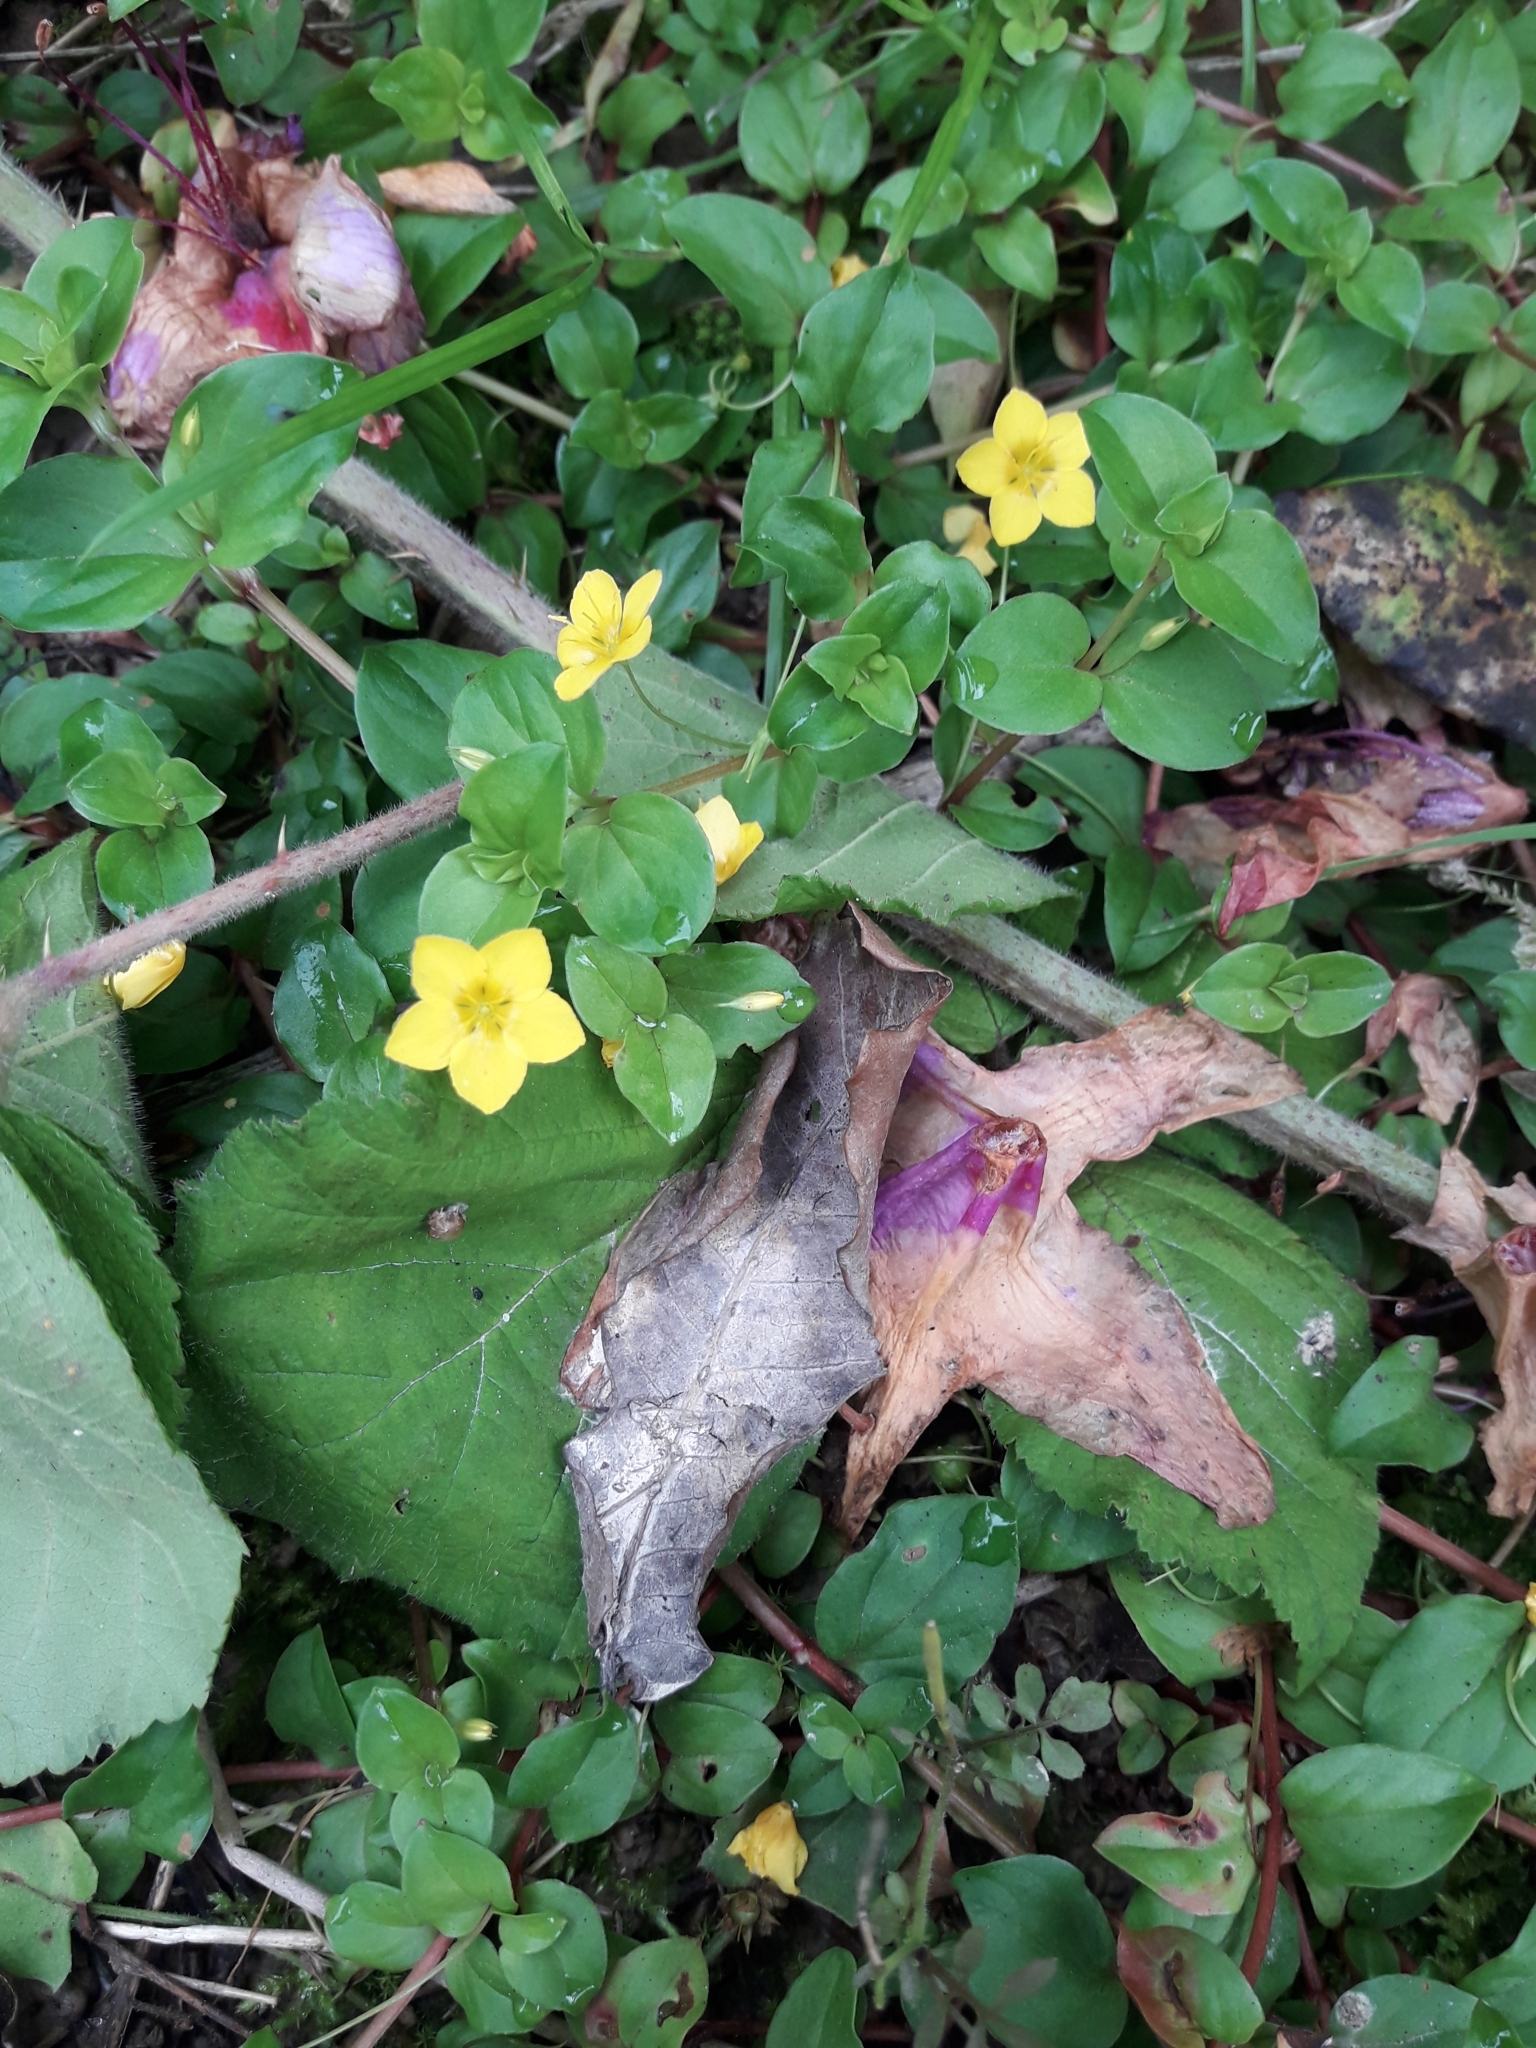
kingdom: Plantae
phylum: Tracheophyta
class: Magnoliopsida
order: Ericales
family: Primulaceae
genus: Lysimachia
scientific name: Lysimachia nemorum
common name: Yellow pimpernel
